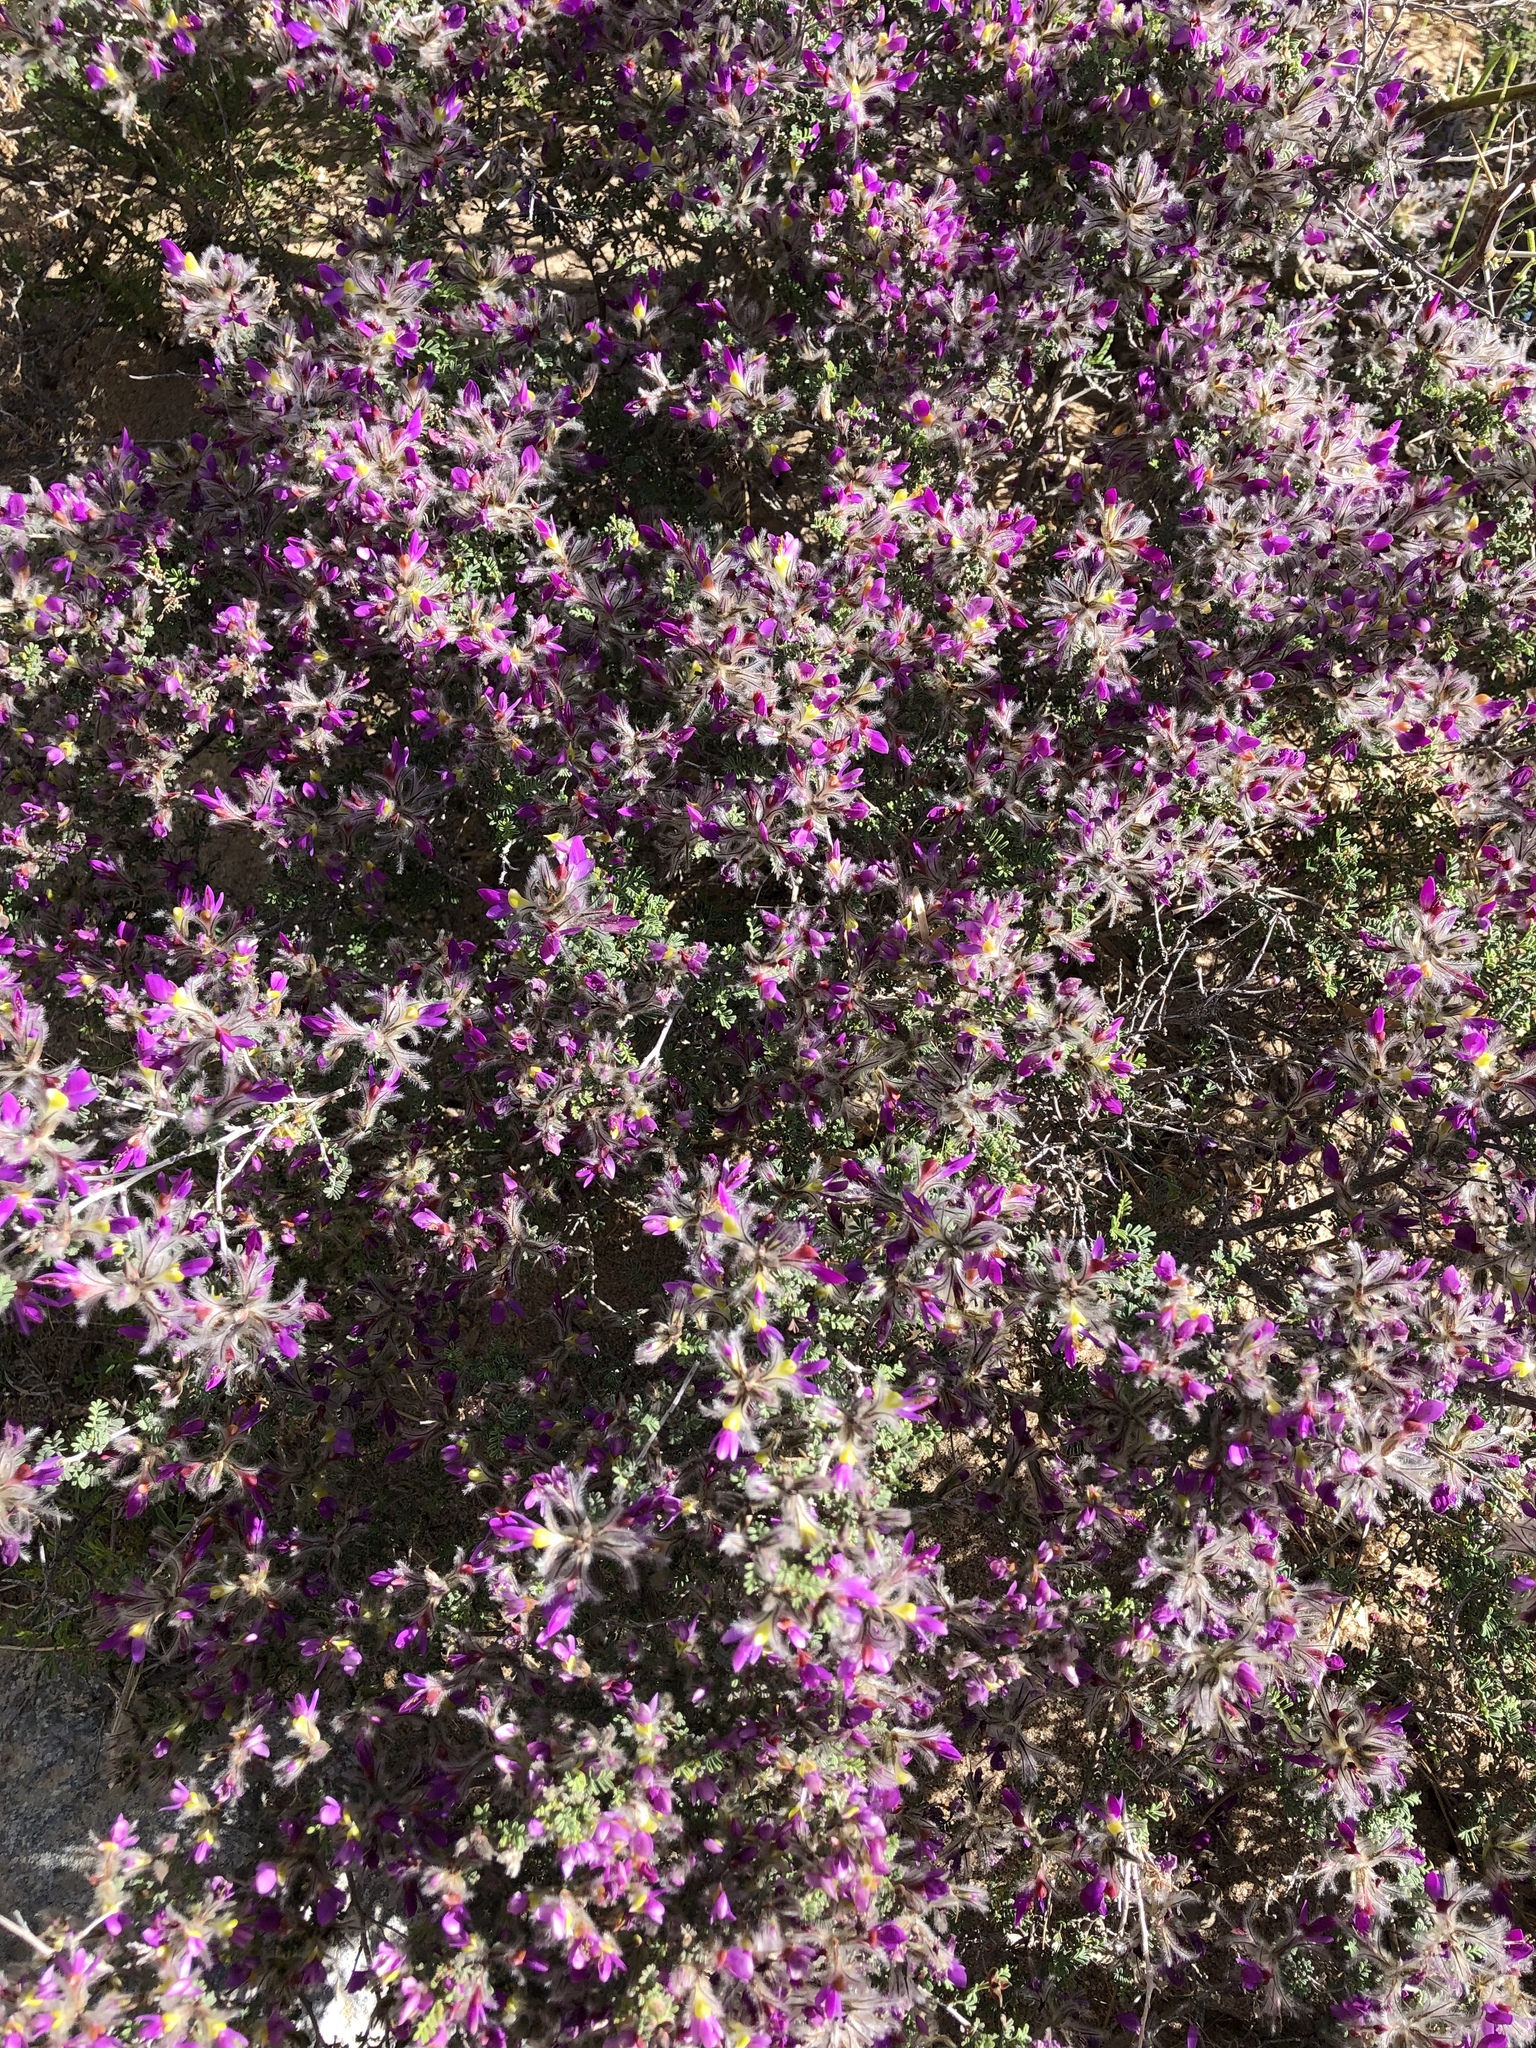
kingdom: Plantae
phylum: Tracheophyta
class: Magnoliopsida
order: Fabales
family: Fabaceae
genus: Dalea
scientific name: Dalea formosa
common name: Feather-plume dalea
